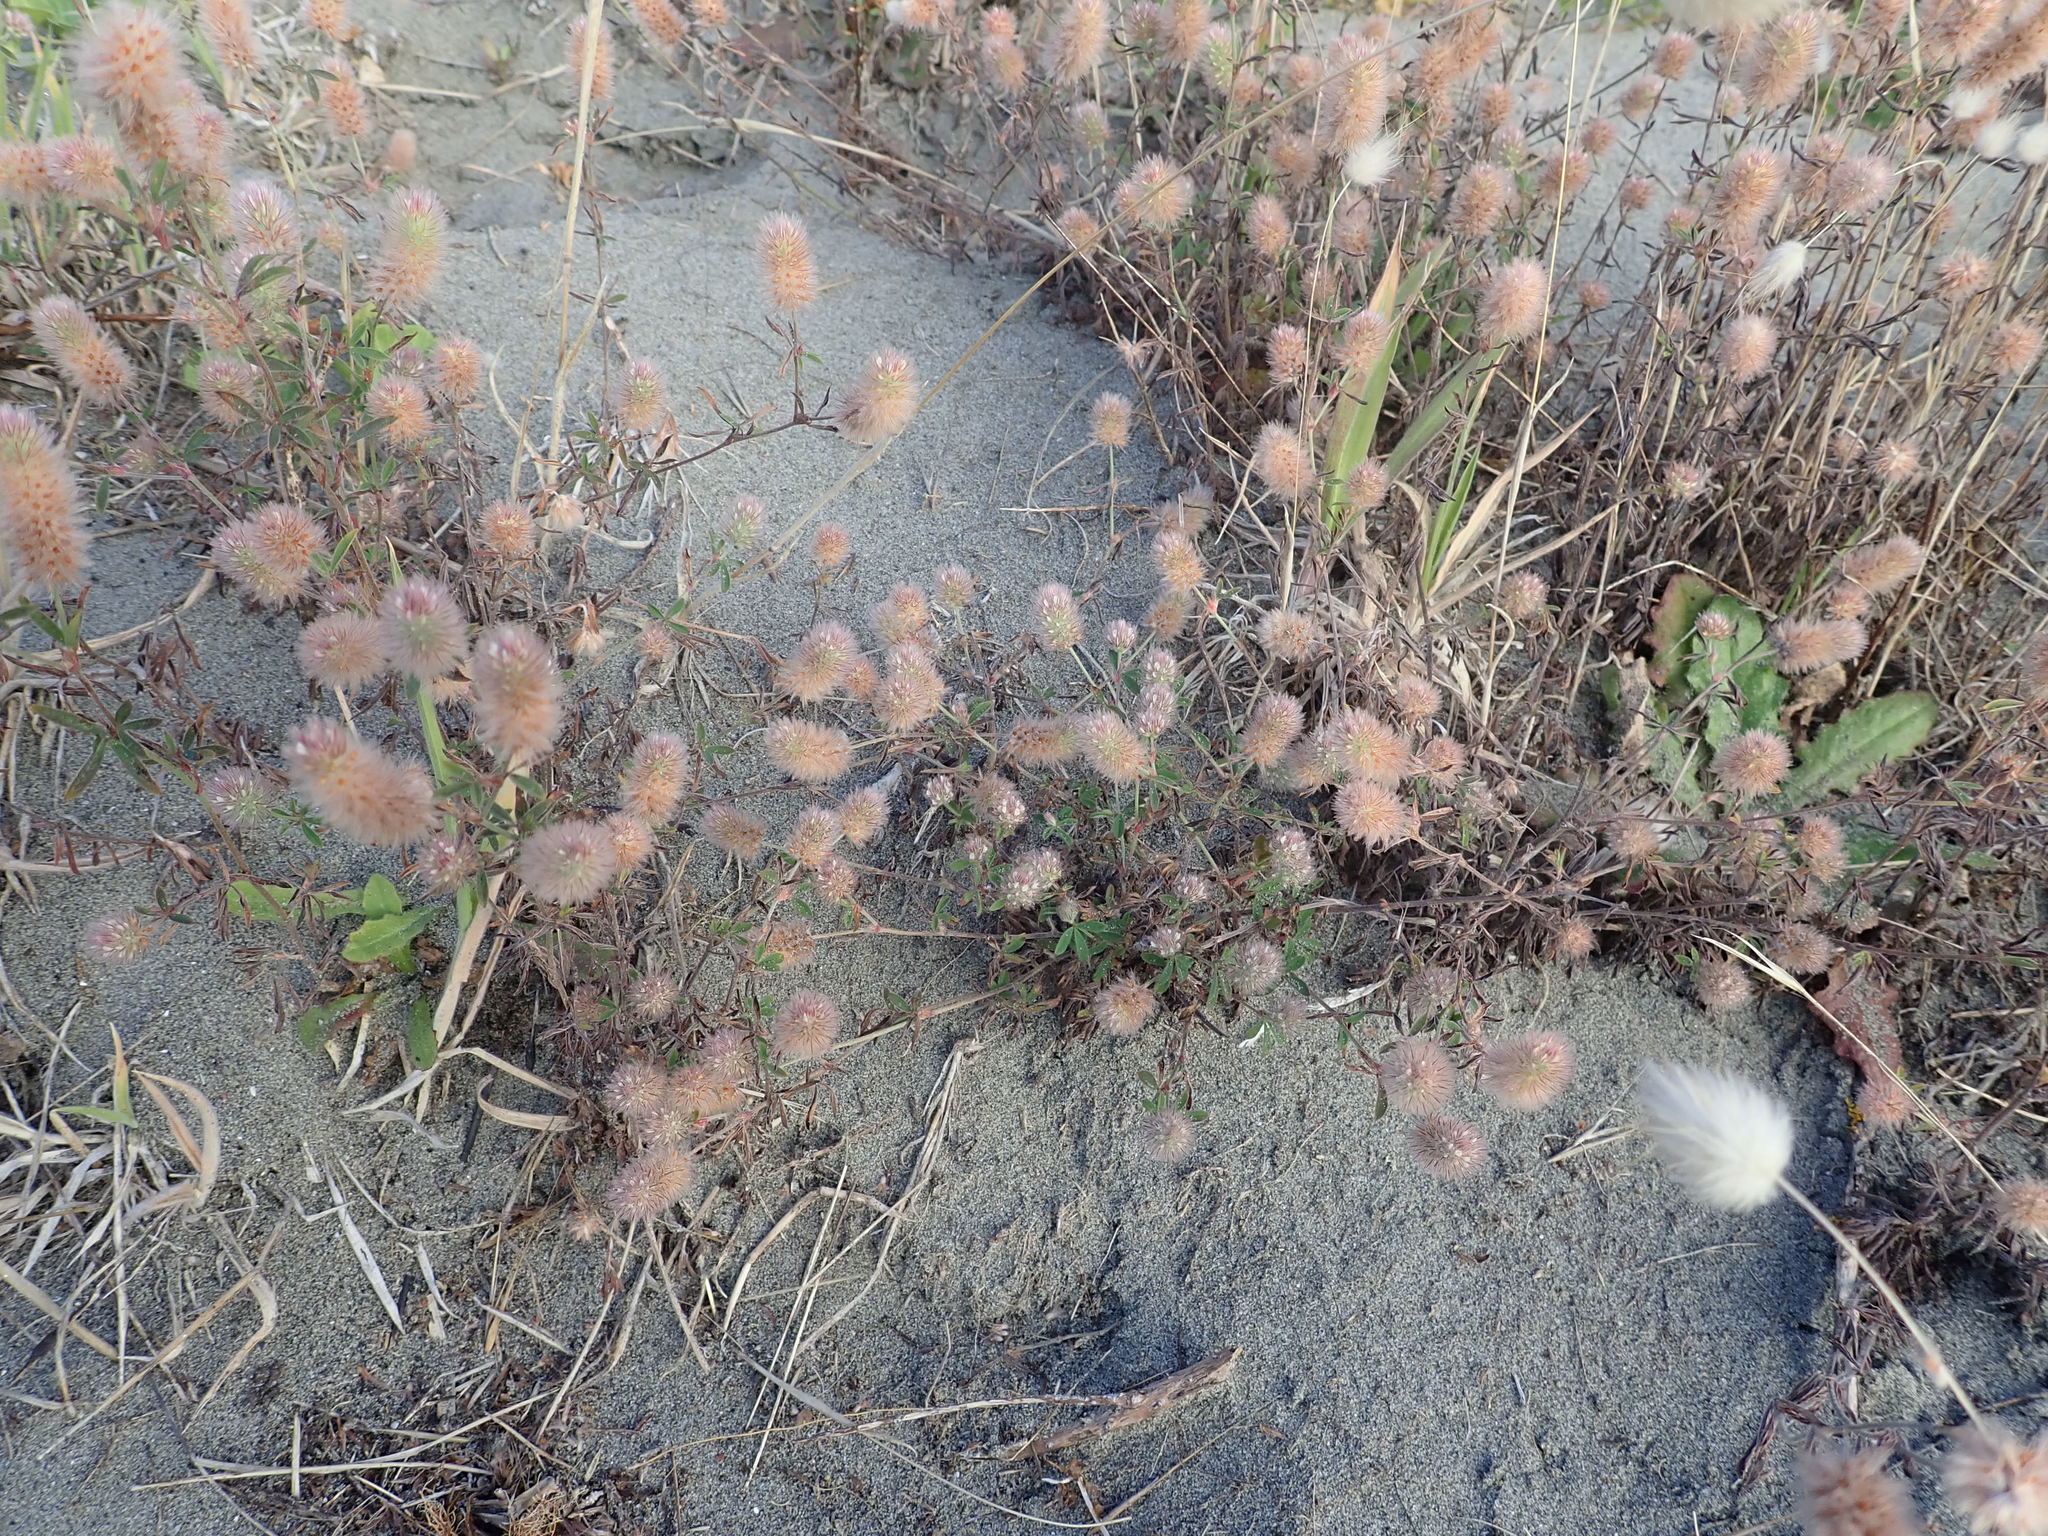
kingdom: Plantae
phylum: Tracheophyta
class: Magnoliopsida
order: Fabales
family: Fabaceae
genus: Trifolium
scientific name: Trifolium arvense
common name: Hare's-foot clover
